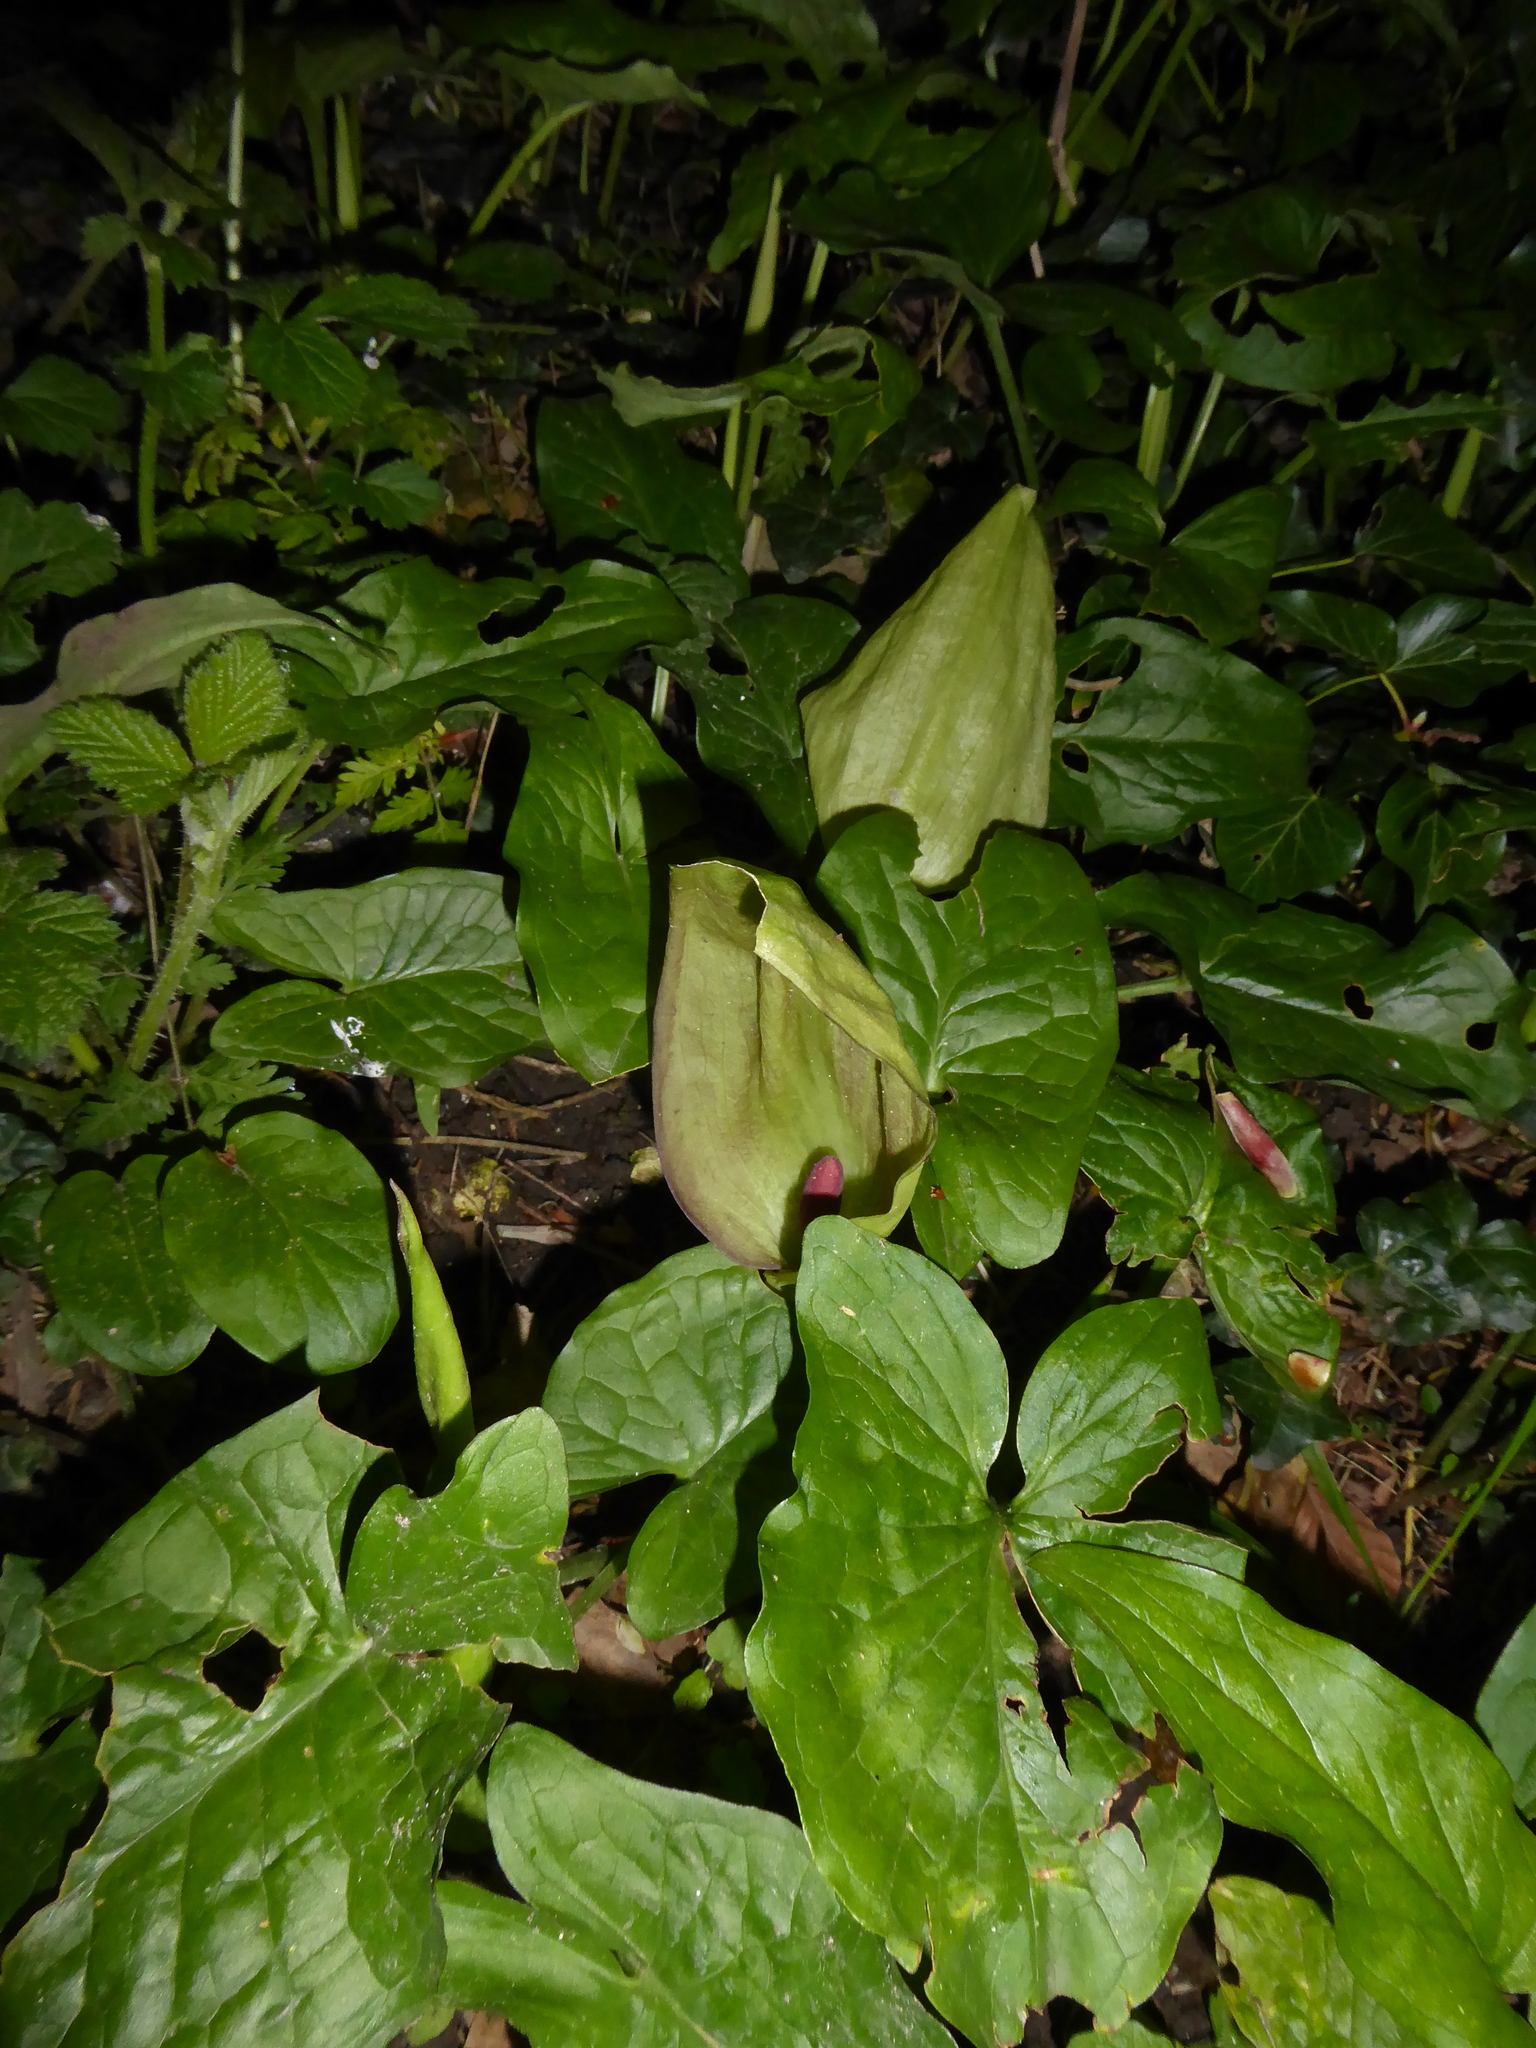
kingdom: Plantae
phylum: Tracheophyta
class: Liliopsida
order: Alismatales
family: Araceae
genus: Arum
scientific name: Arum maculatum
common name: Lords-and-ladies
